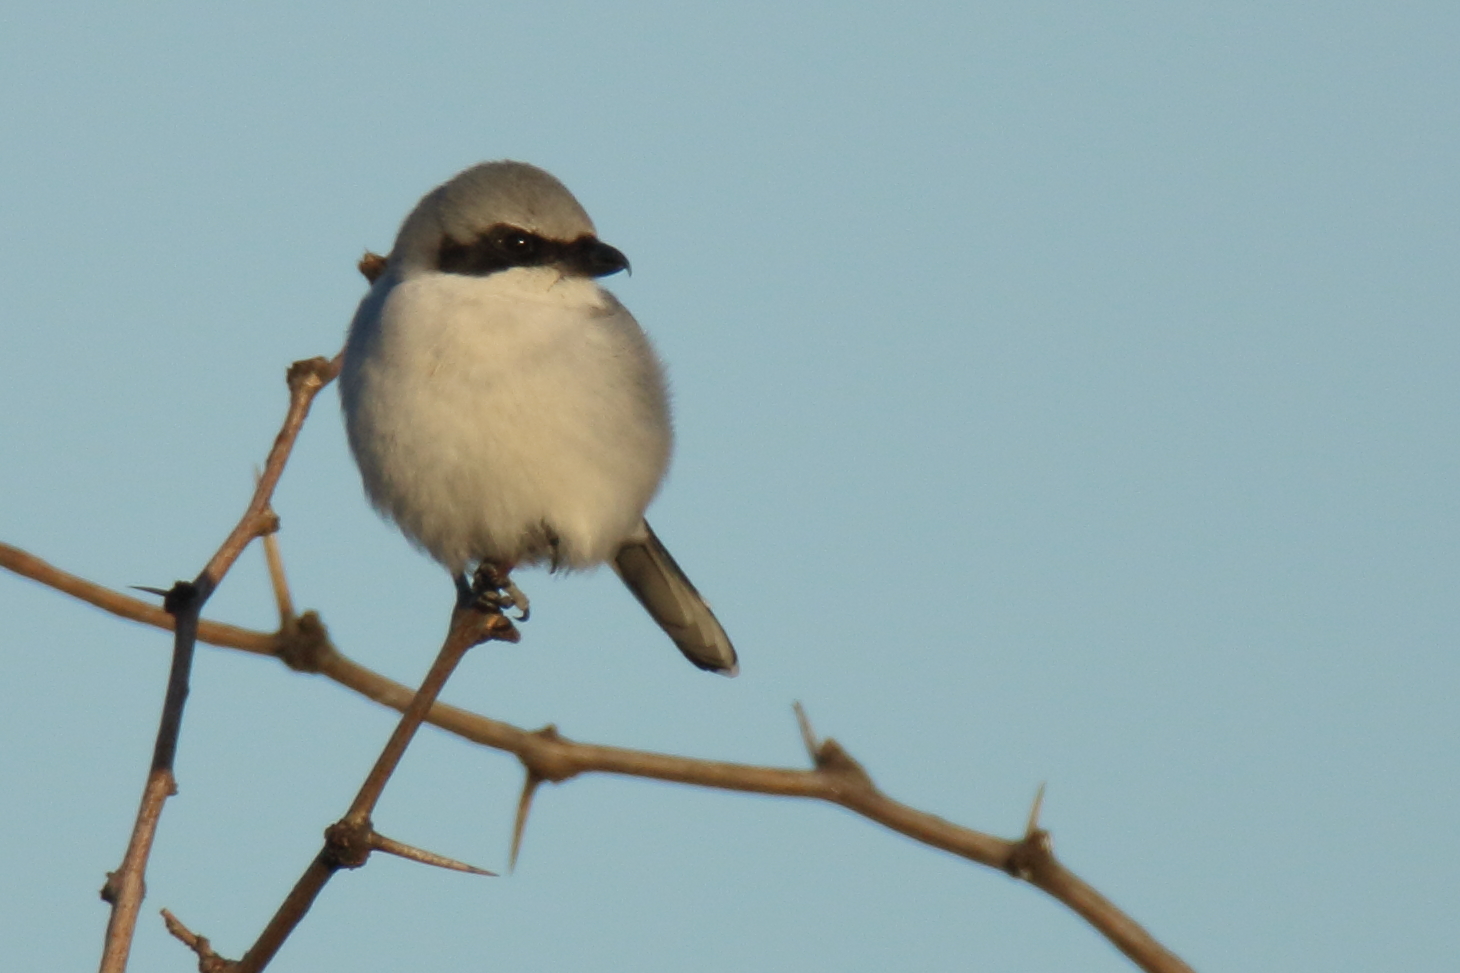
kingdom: Animalia
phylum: Chordata
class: Aves
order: Passeriformes
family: Laniidae
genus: Lanius
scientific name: Lanius ludovicianus
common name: Loggerhead shrike
